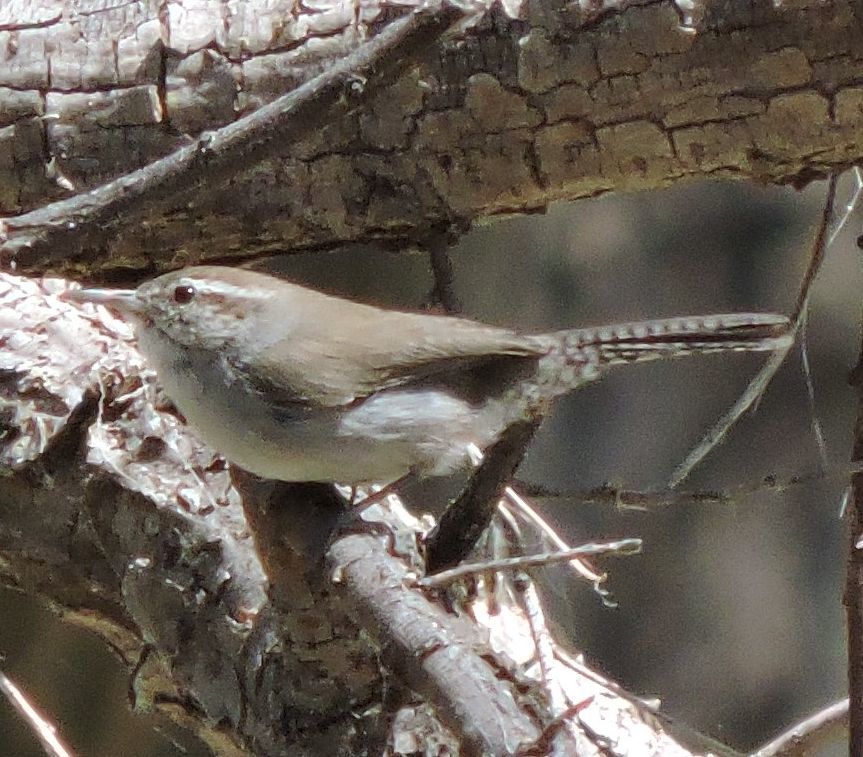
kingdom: Animalia
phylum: Chordata
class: Aves
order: Passeriformes
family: Troglodytidae
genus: Thryomanes
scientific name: Thryomanes bewickii
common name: Bewick's wren
